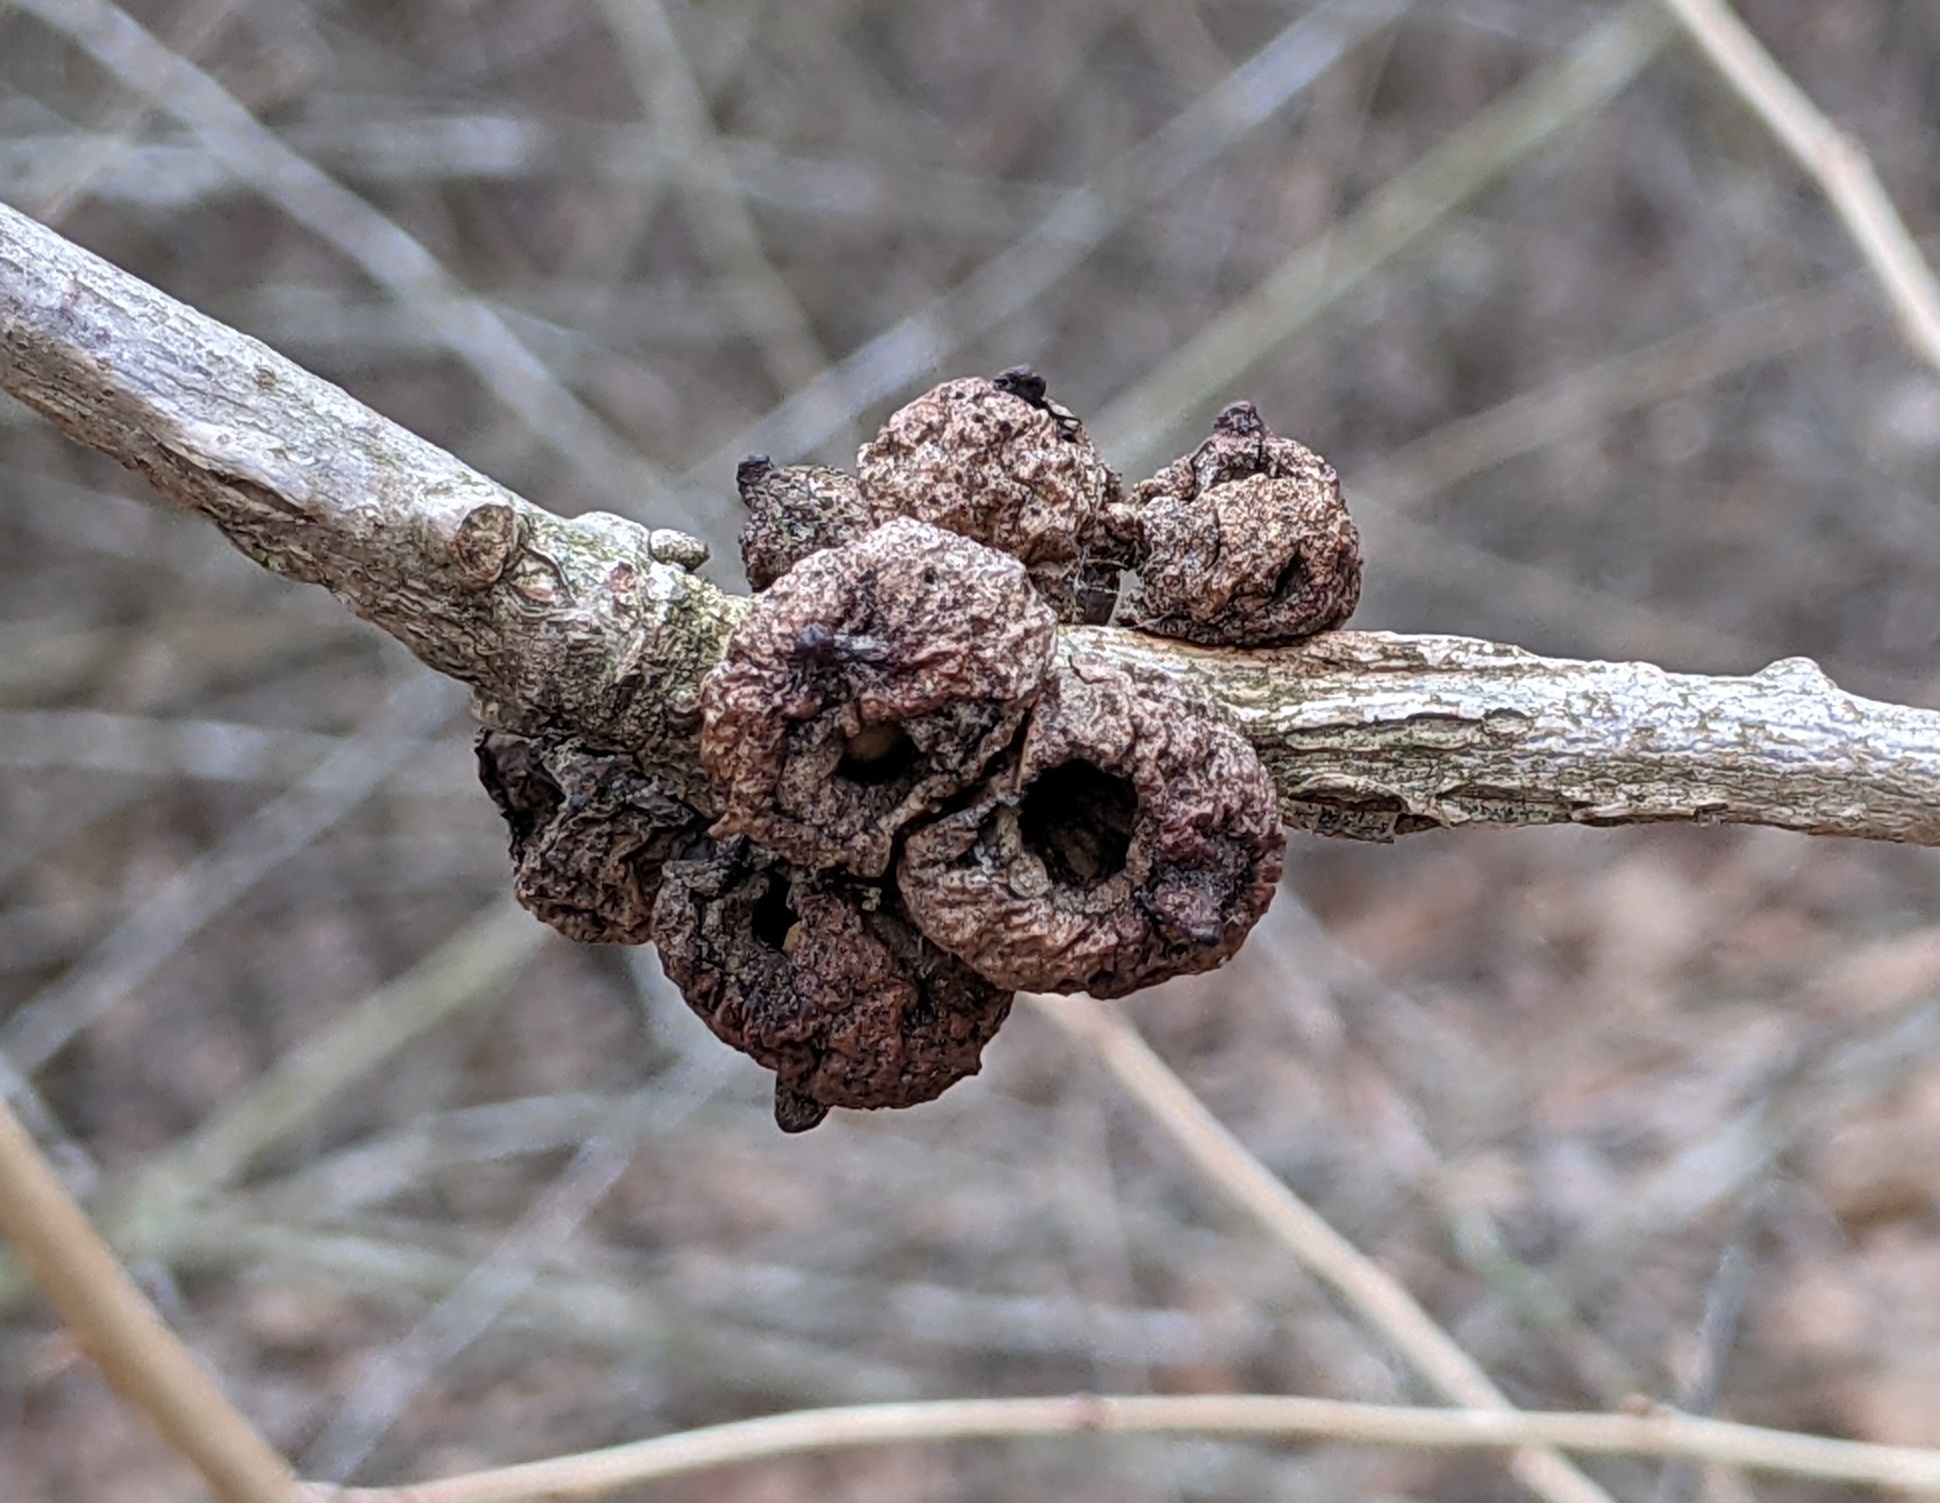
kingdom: Animalia
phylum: Arthropoda
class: Insecta
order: Hymenoptera
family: Cynipidae
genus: Disholcaspis
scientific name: Disholcaspis
